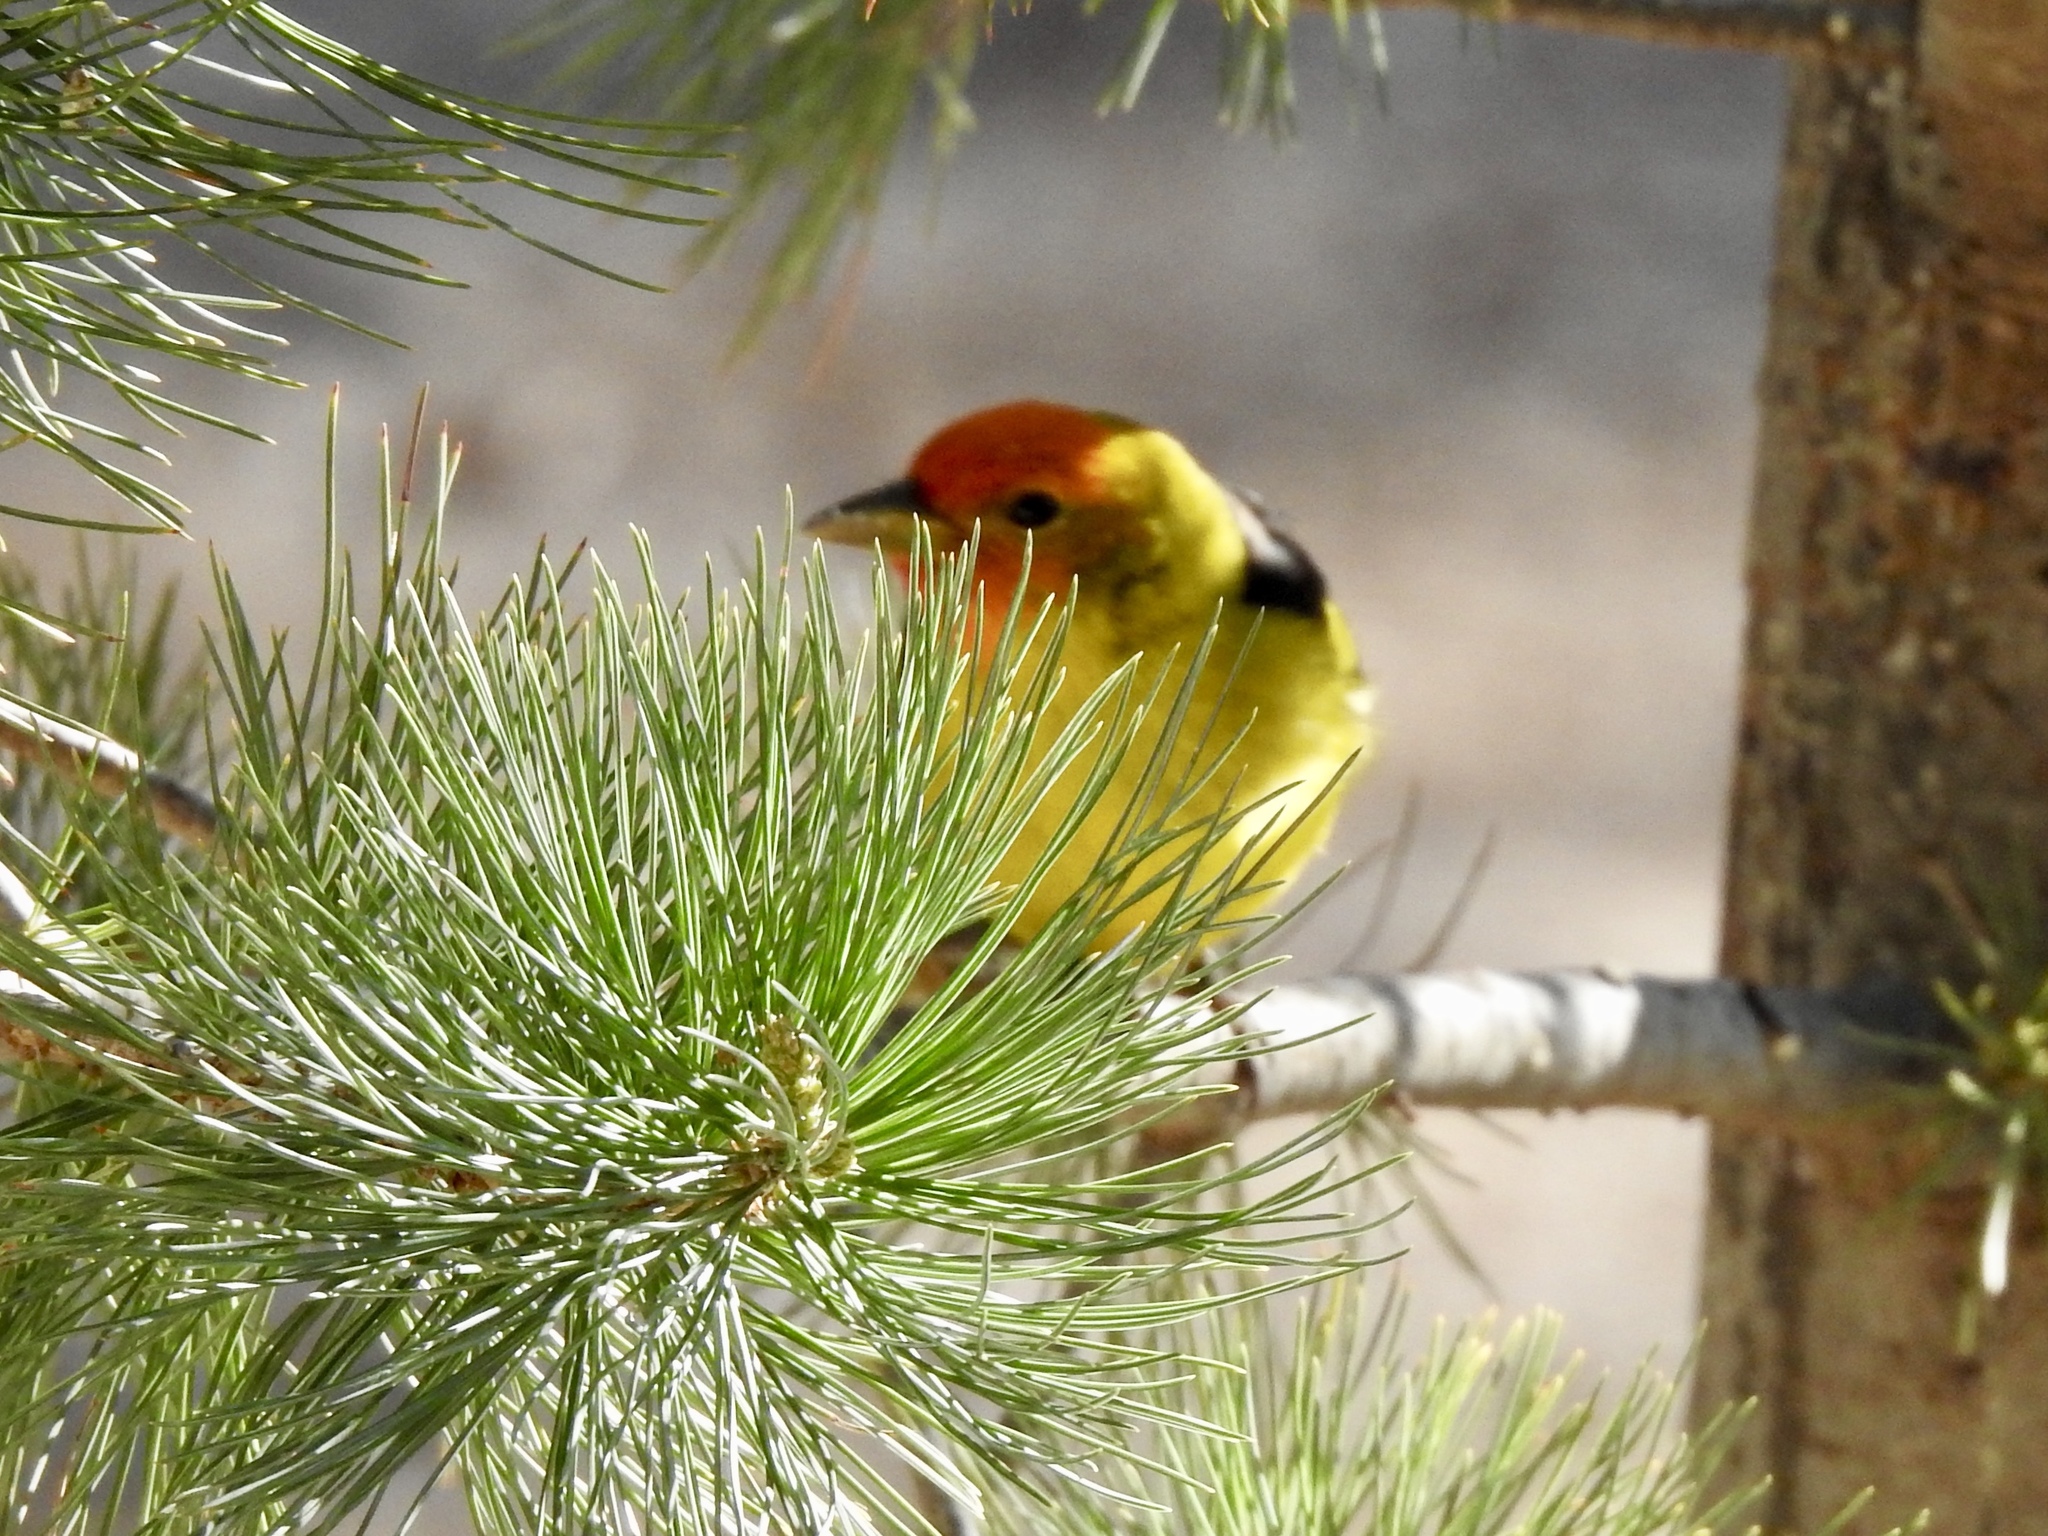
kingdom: Animalia
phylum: Chordata
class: Aves
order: Passeriformes
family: Cardinalidae
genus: Piranga
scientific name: Piranga ludoviciana
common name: Western tanager
